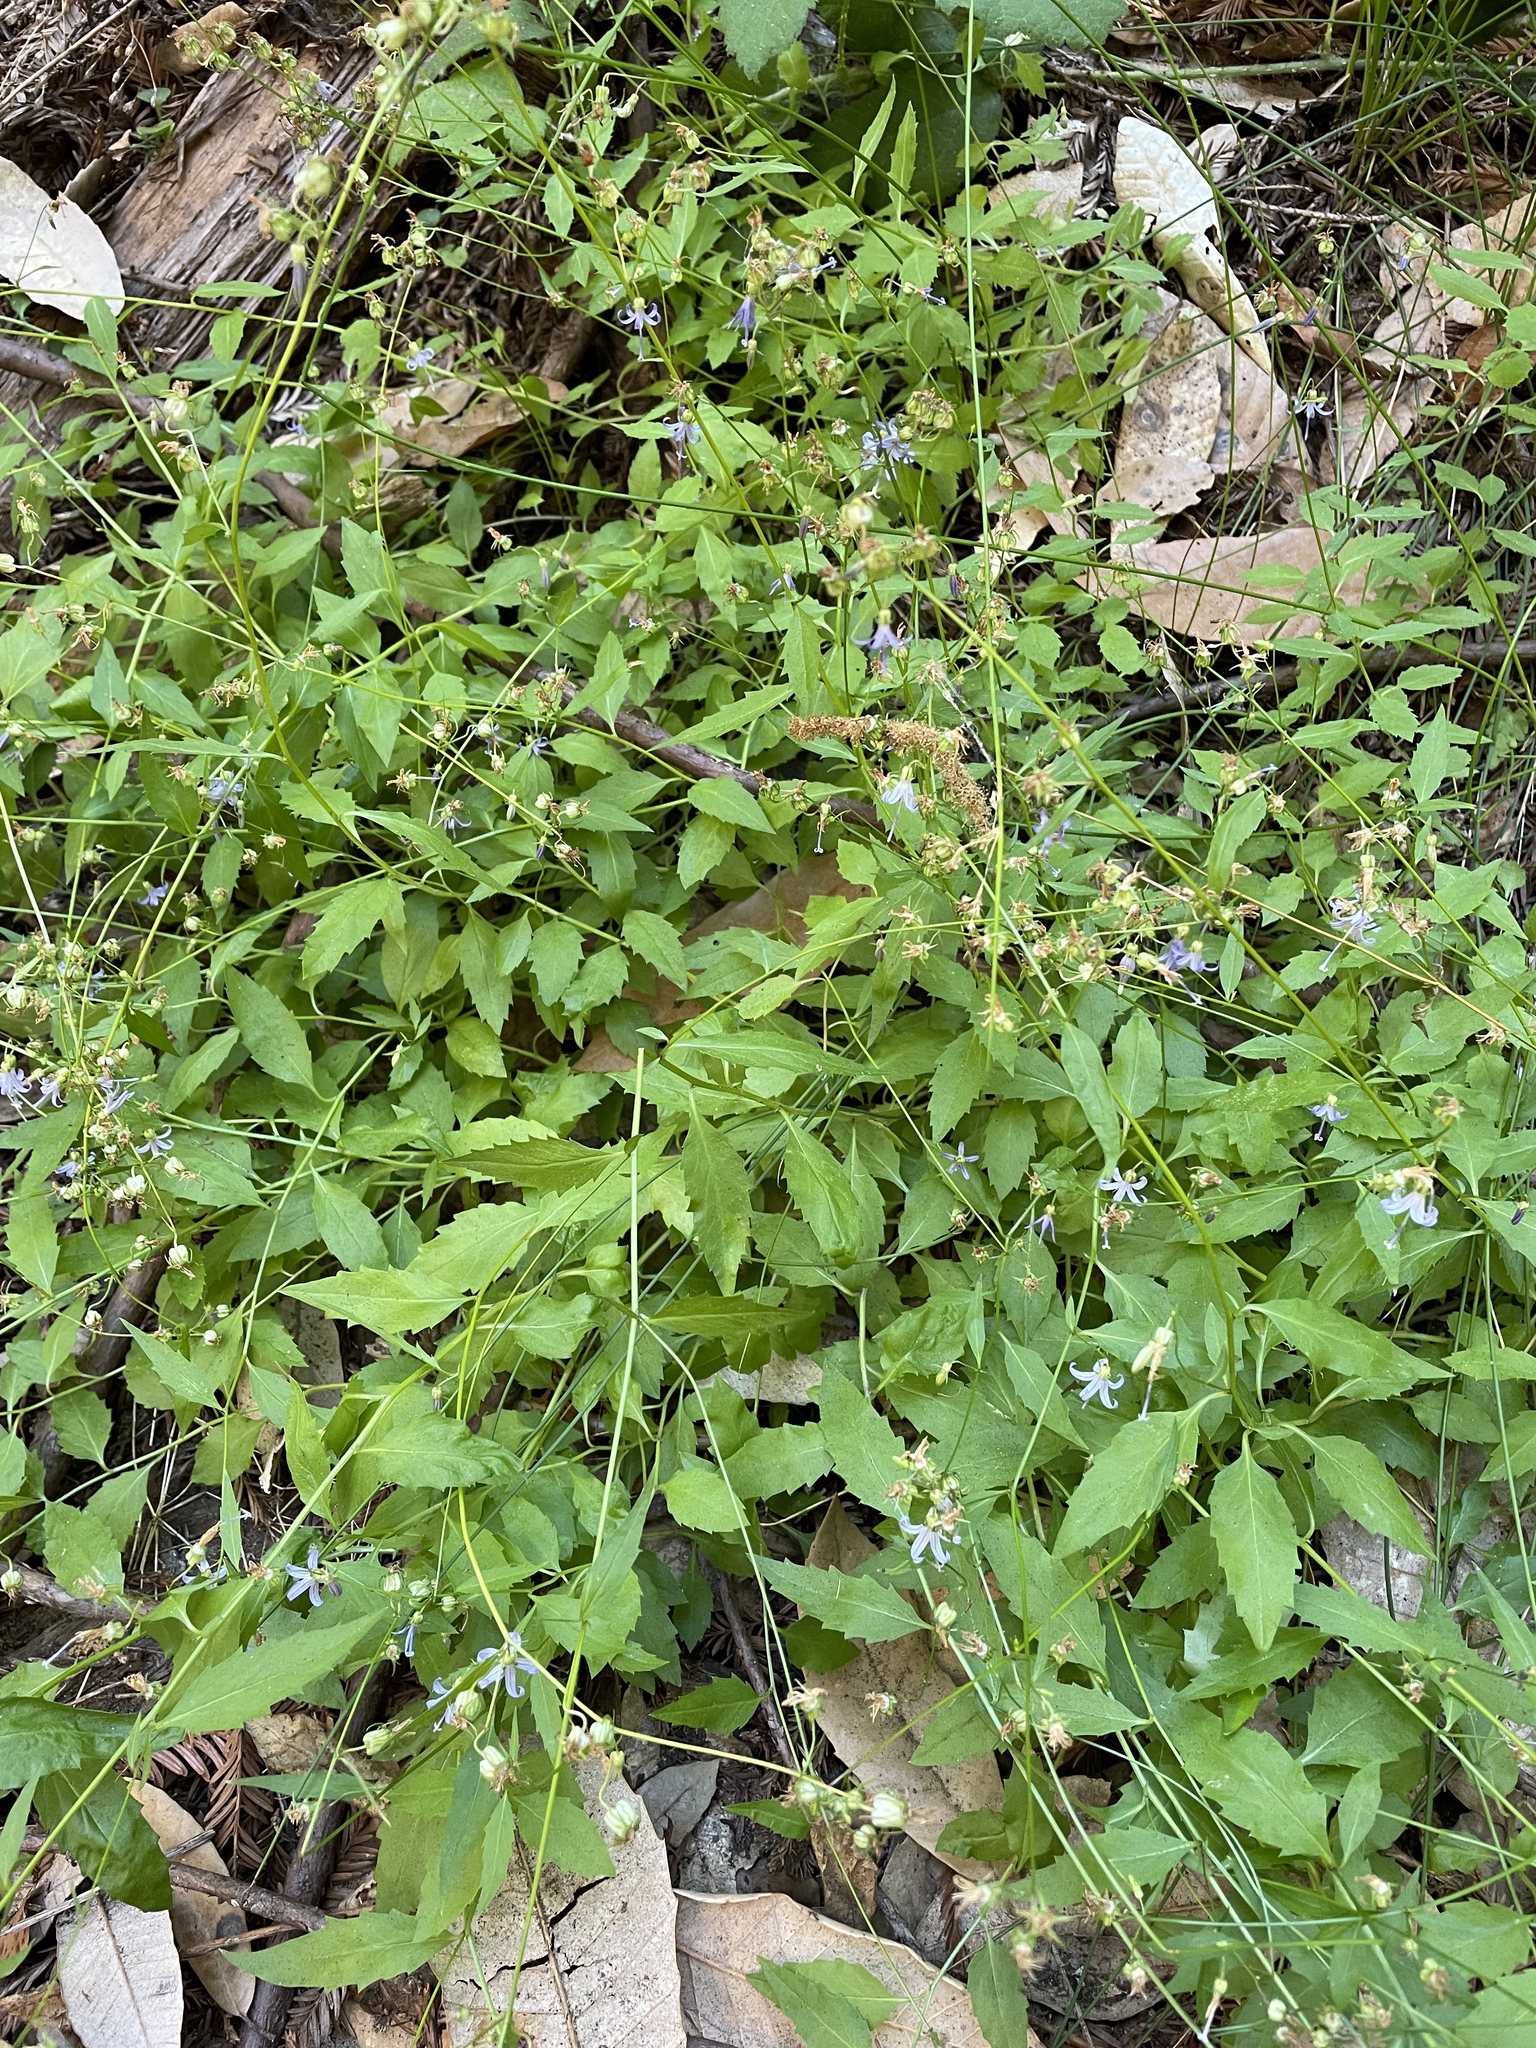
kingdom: Plantae
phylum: Tracheophyta
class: Magnoliopsida
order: Asterales
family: Campanulaceae
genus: Smithiastrum
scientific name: Smithiastrum prenanthoides
